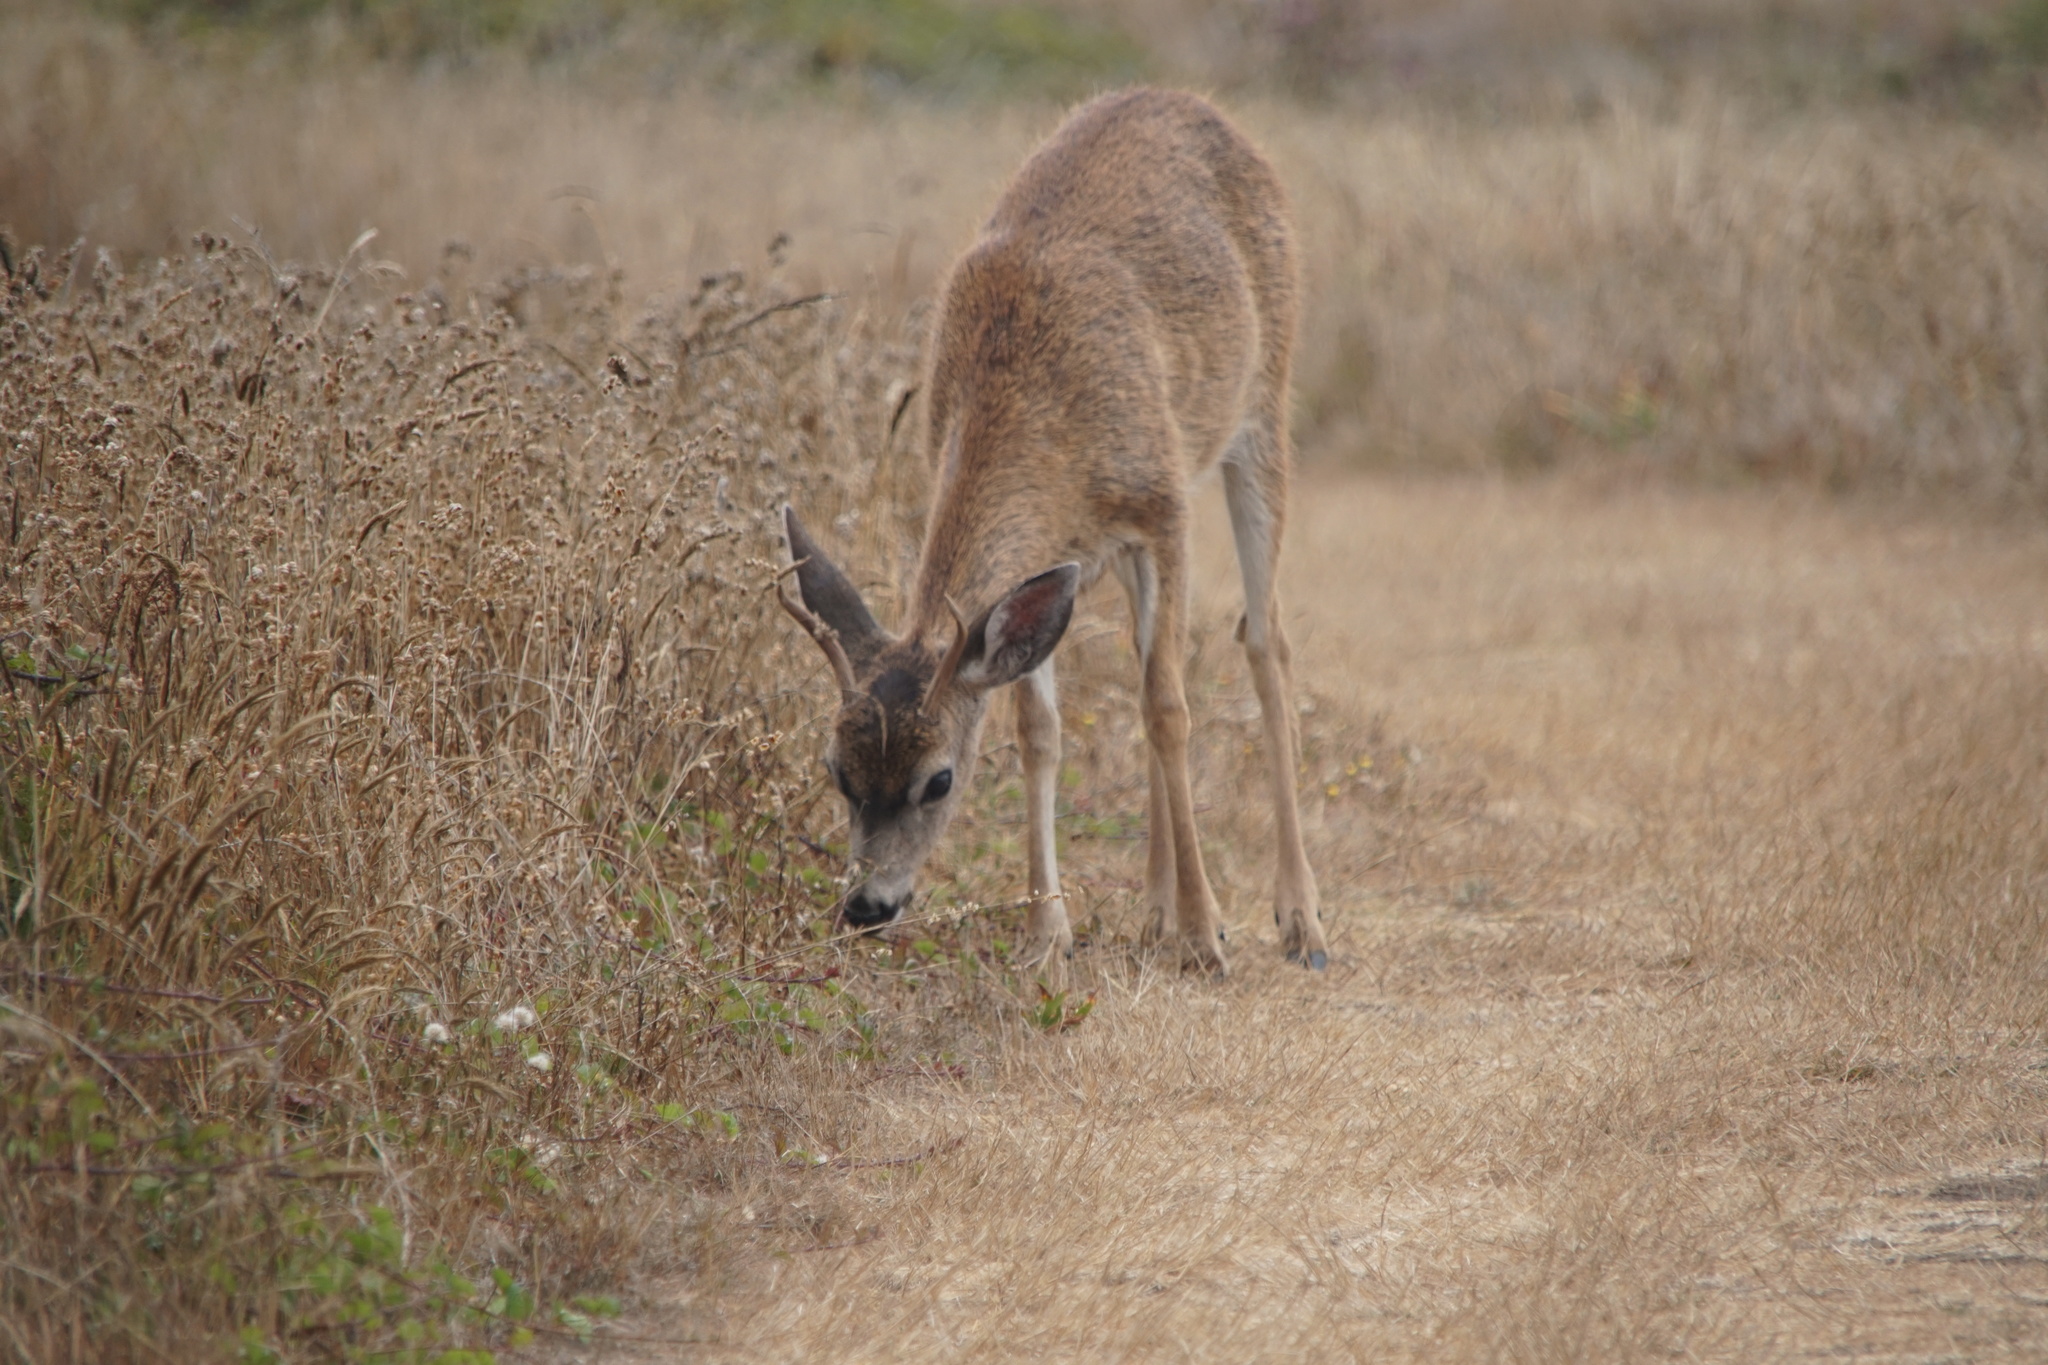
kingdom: Animalia
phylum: Chordata
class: Mammalia
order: Artiodactyla
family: Cervidae
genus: Odocoileus
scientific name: Odocoileus hemionus
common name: Mule deer
